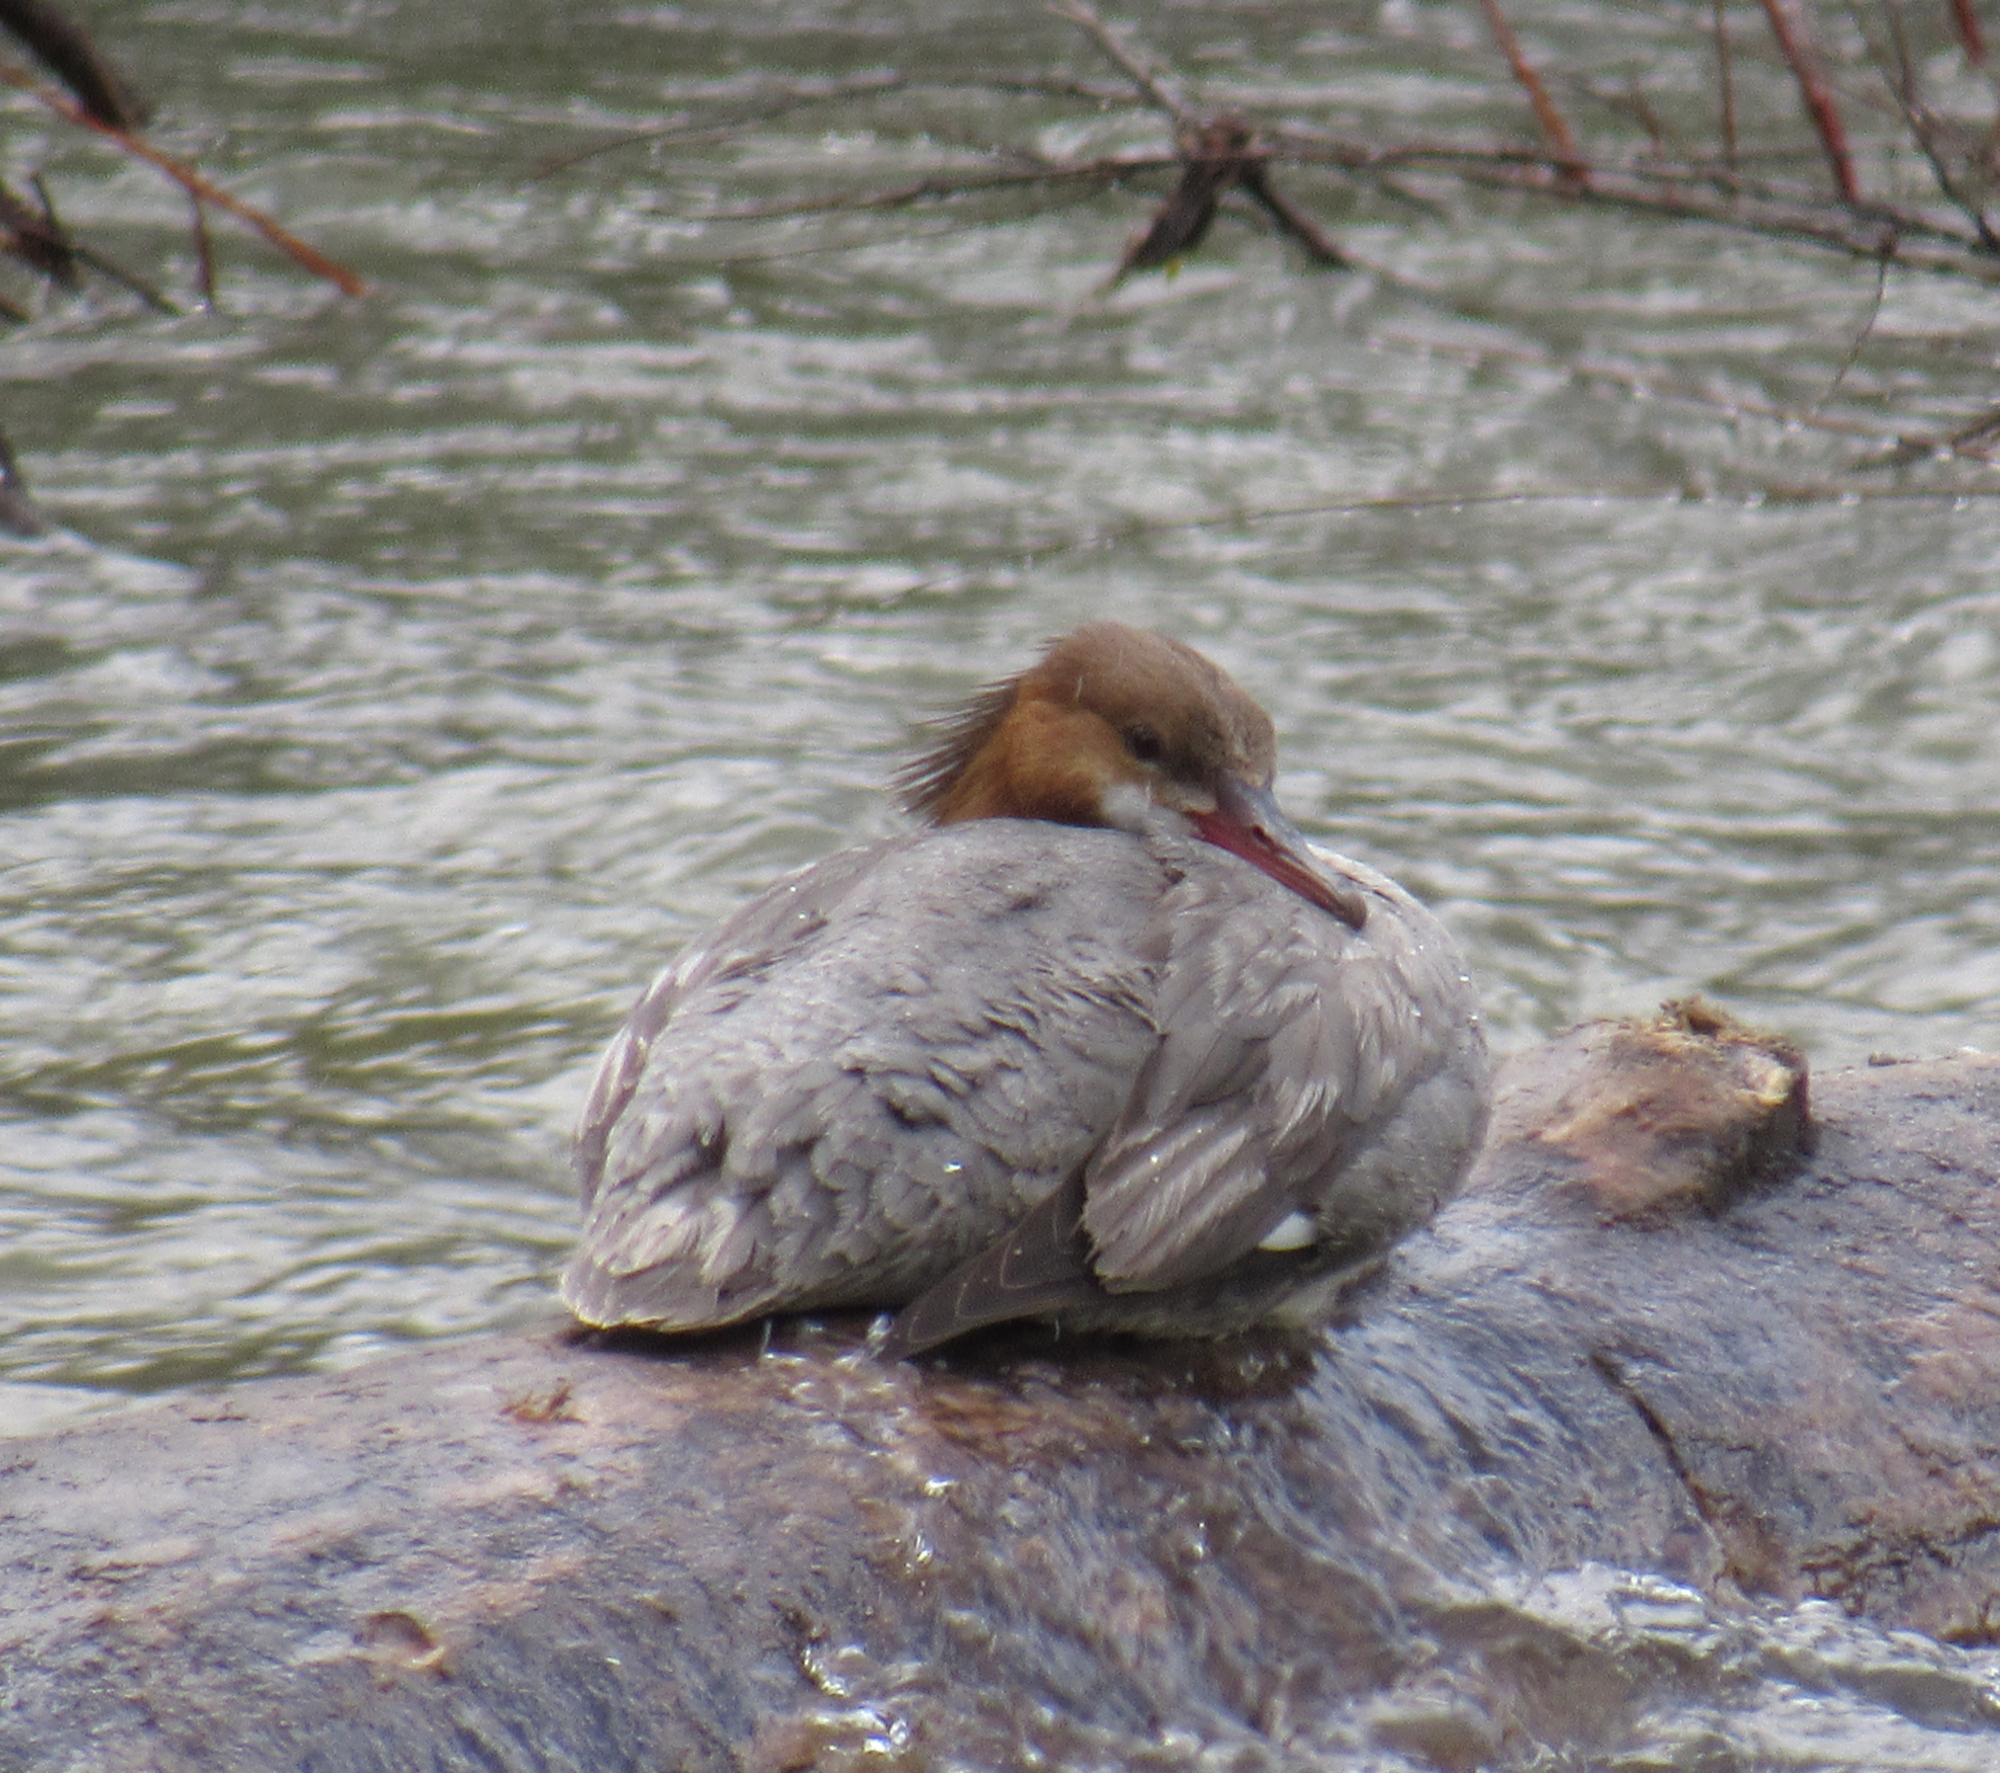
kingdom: Animalia
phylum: Chordata
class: Aves
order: Anseriformes
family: Anatidae
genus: Mergus
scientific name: Mergus merganser
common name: Common merganser
